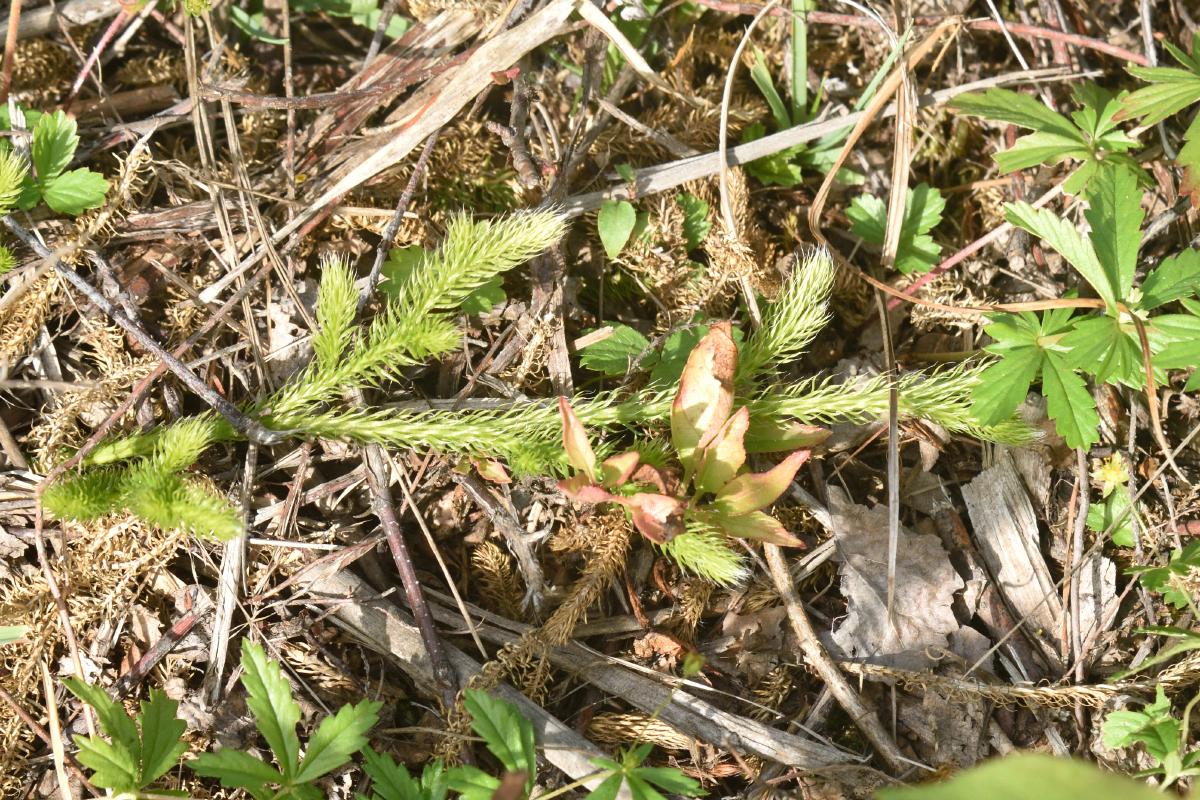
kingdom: Plantae
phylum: Tracheophyta
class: Lycopodiopsida
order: Lycopodiales
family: Lycopodiaceae
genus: Lycopodium
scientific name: Lycopodium clavatum
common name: Stag's-horn clubmoss
